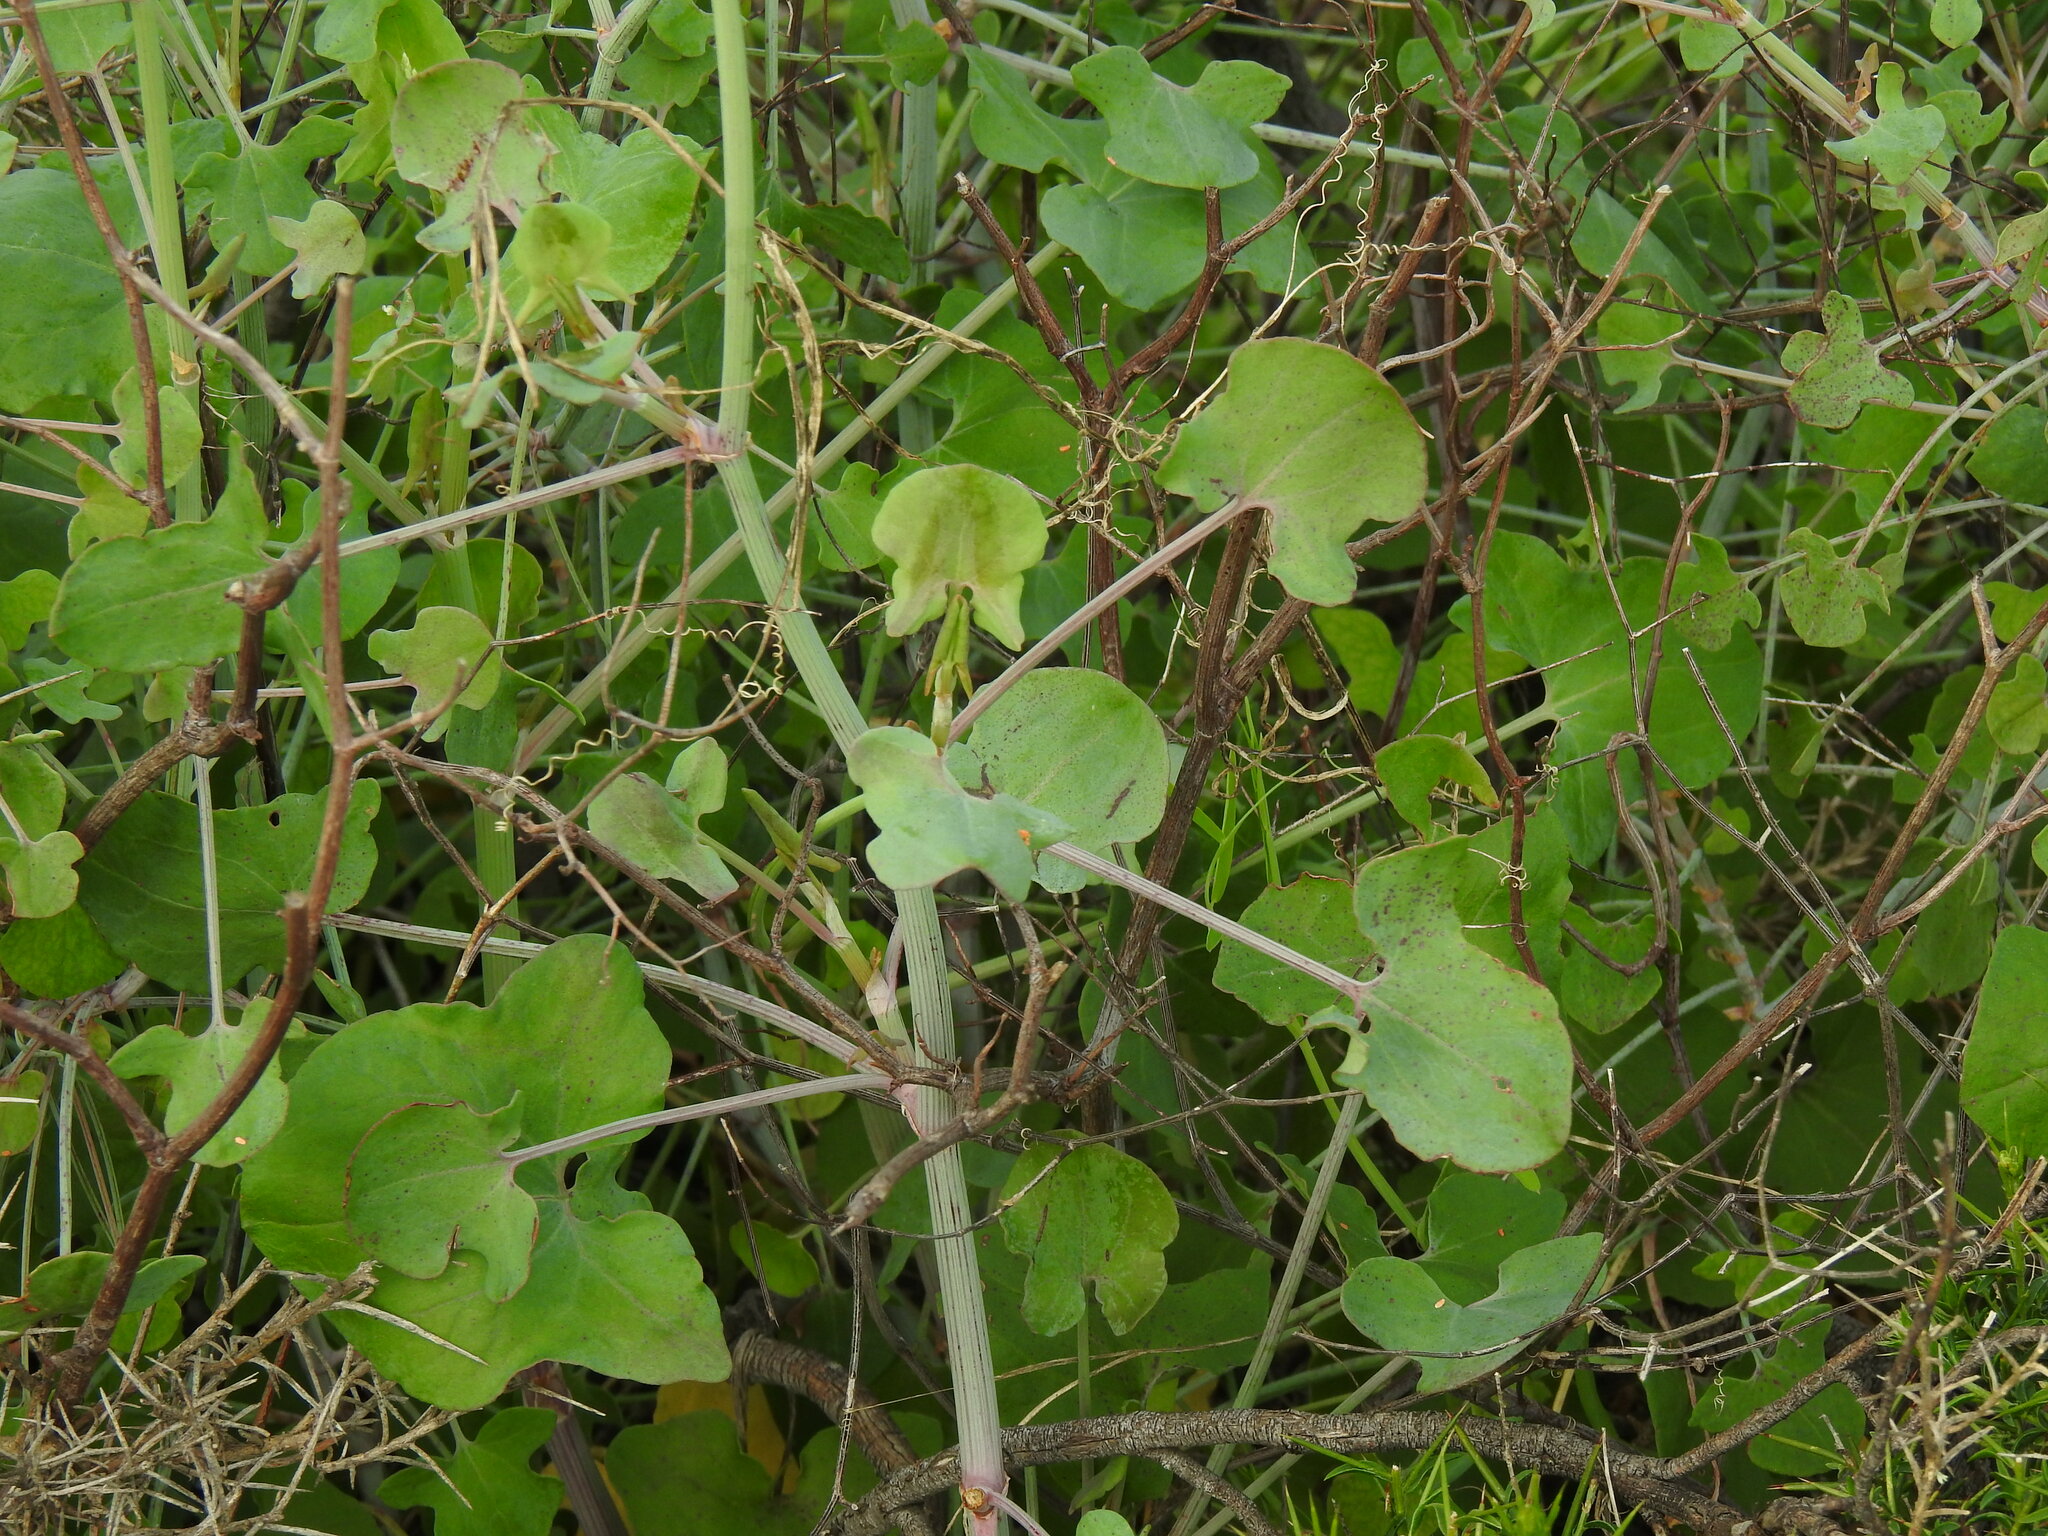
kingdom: Plantae
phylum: Tracheophyta
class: Magnoliopsida
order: Caryophyllales
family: Polygonaceae
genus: Rumex
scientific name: Rumex induratus
